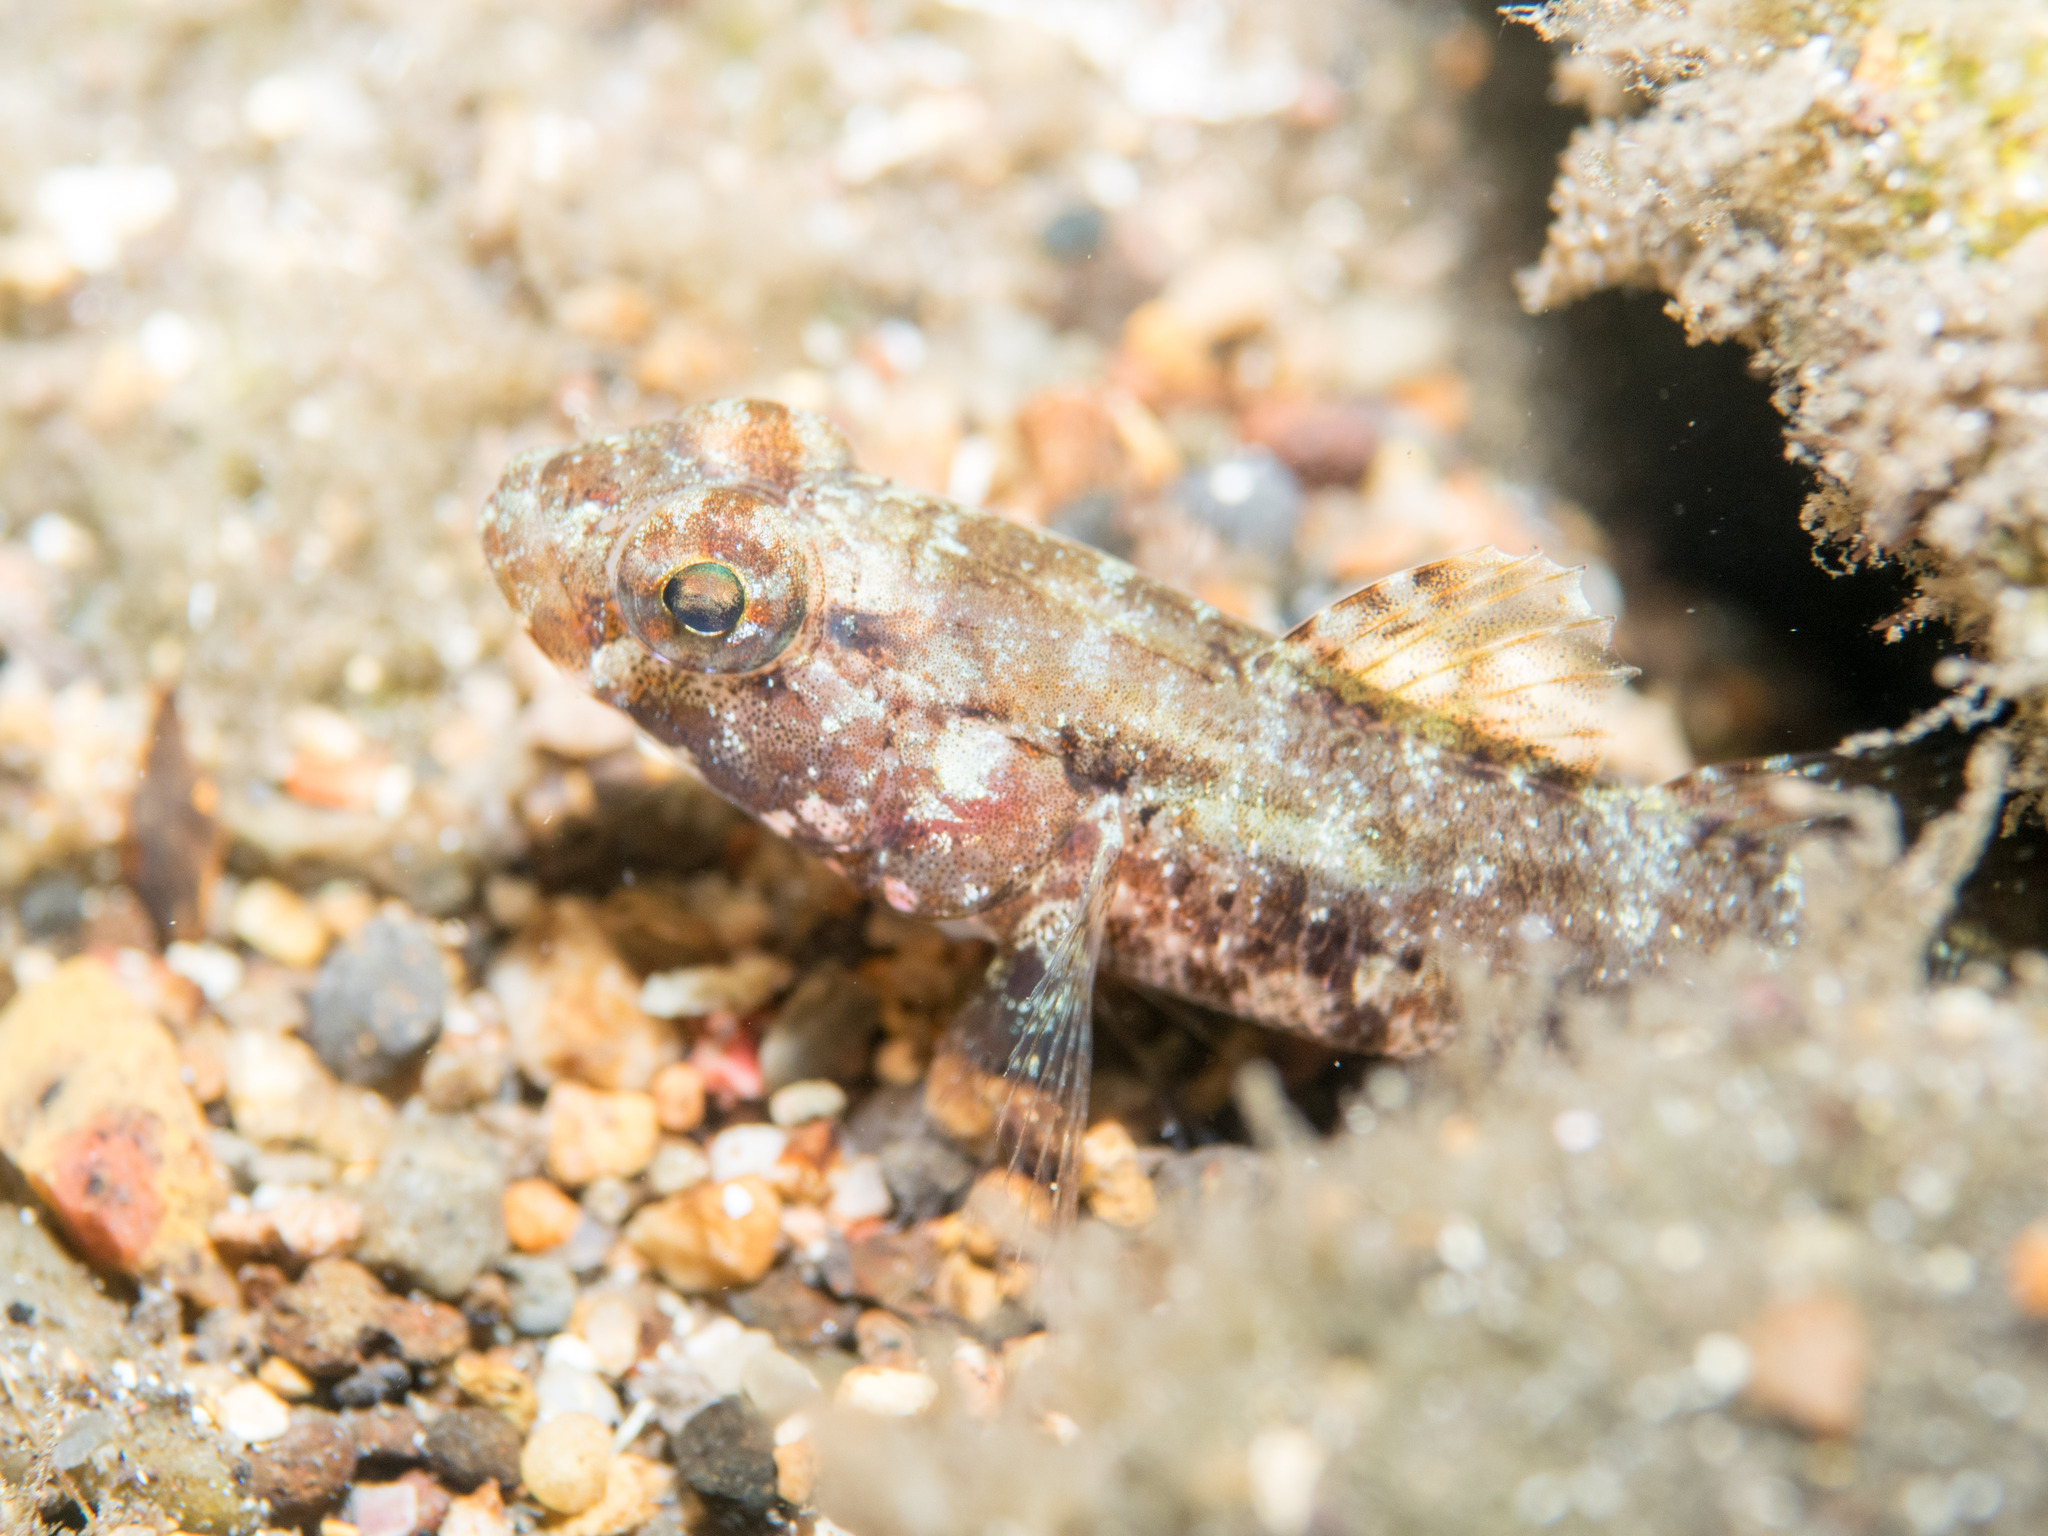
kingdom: Animalia
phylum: Chordata
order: Perciformes
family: Gobiidae
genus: Gobius
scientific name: Gobius cruentatus
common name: Red-mouthed goby
